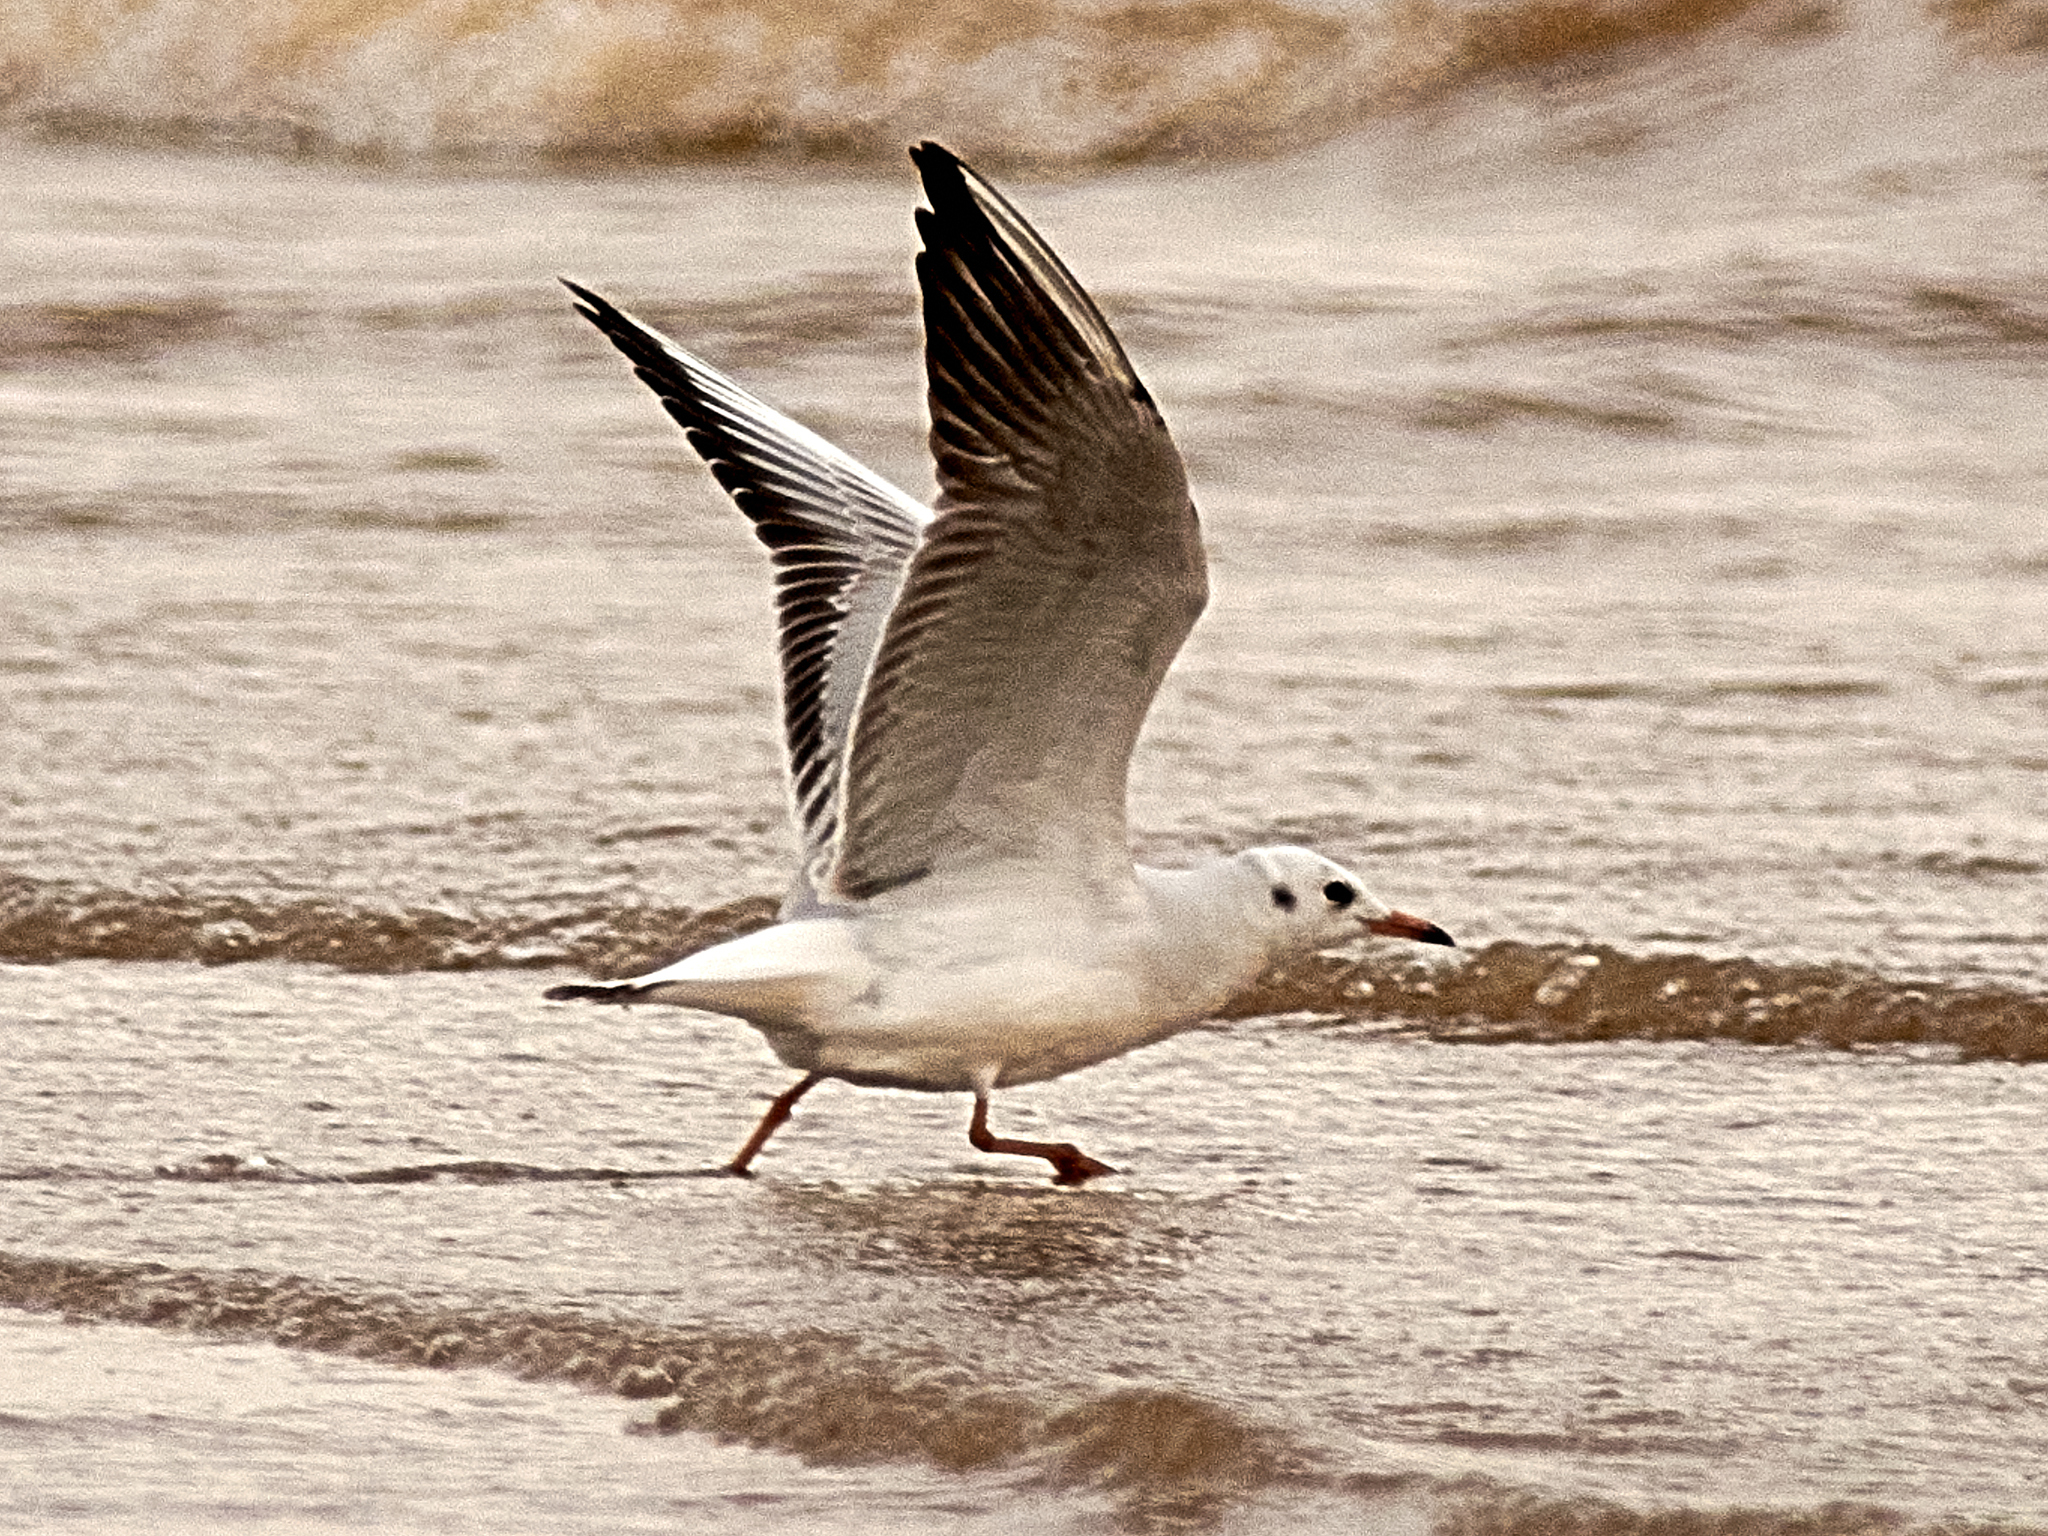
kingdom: Animalia
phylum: Chordata
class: Aves
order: Charadriiformes
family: Laridae
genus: Chroicocephalus
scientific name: Chroicocephalus ridibundus
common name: Black-headed gull
